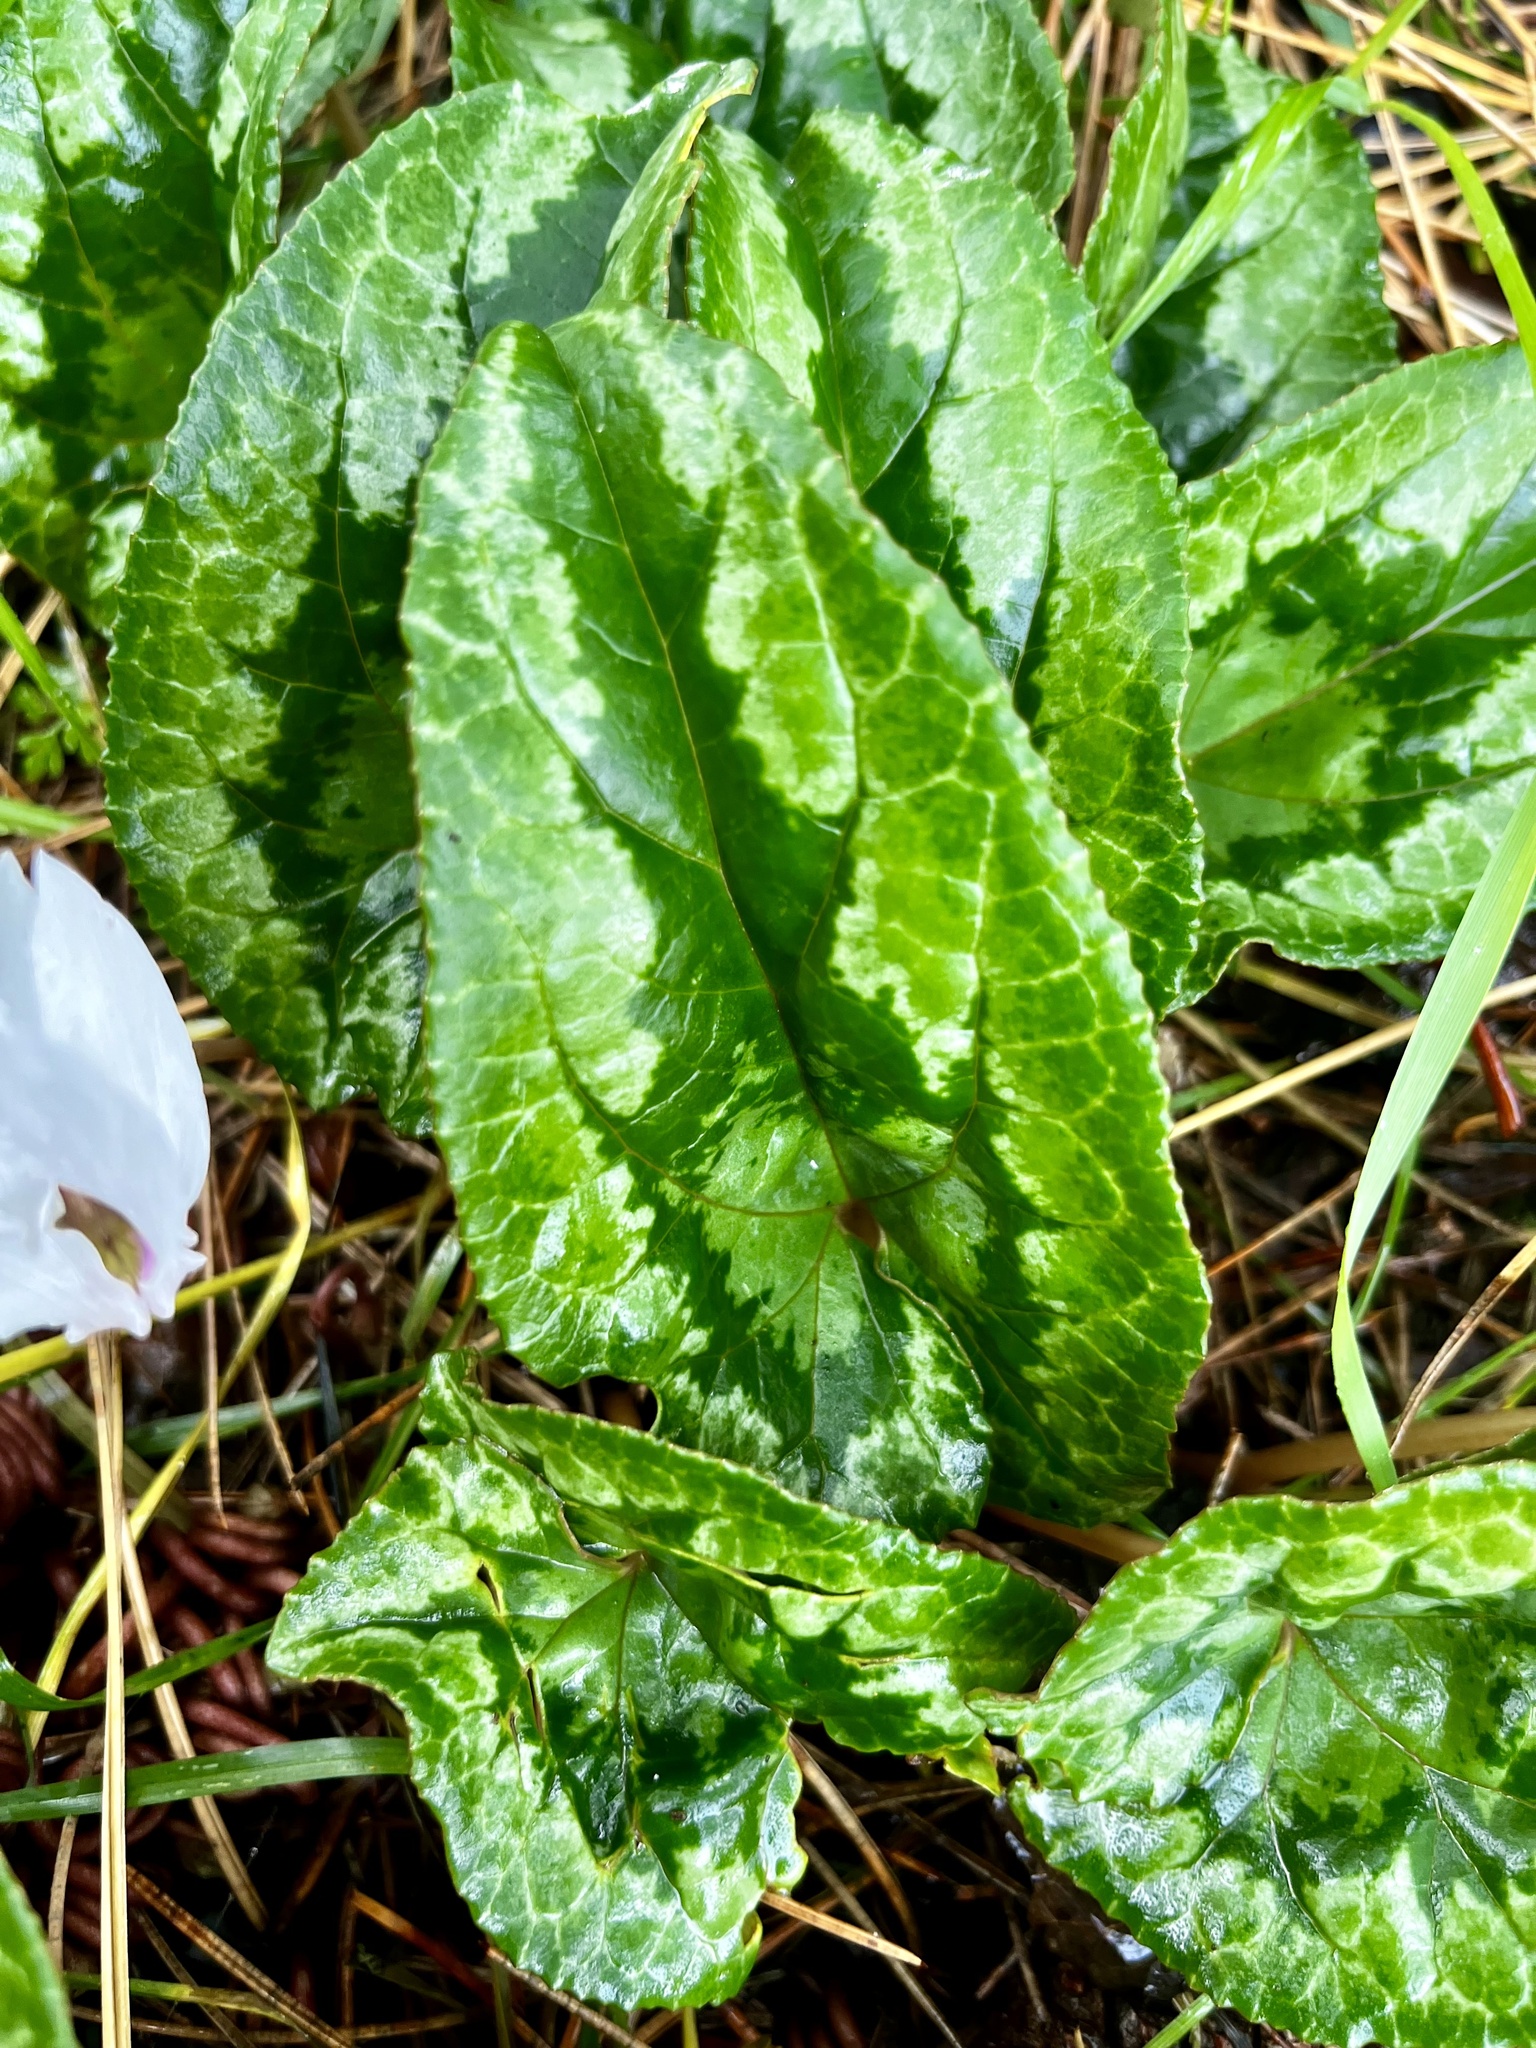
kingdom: Plantae
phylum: Tracheophyta
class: Magnoliopsida
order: Ericales
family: Primulaceae
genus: Cyclamen
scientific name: Cyclamen hederifolium
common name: Sowbread
